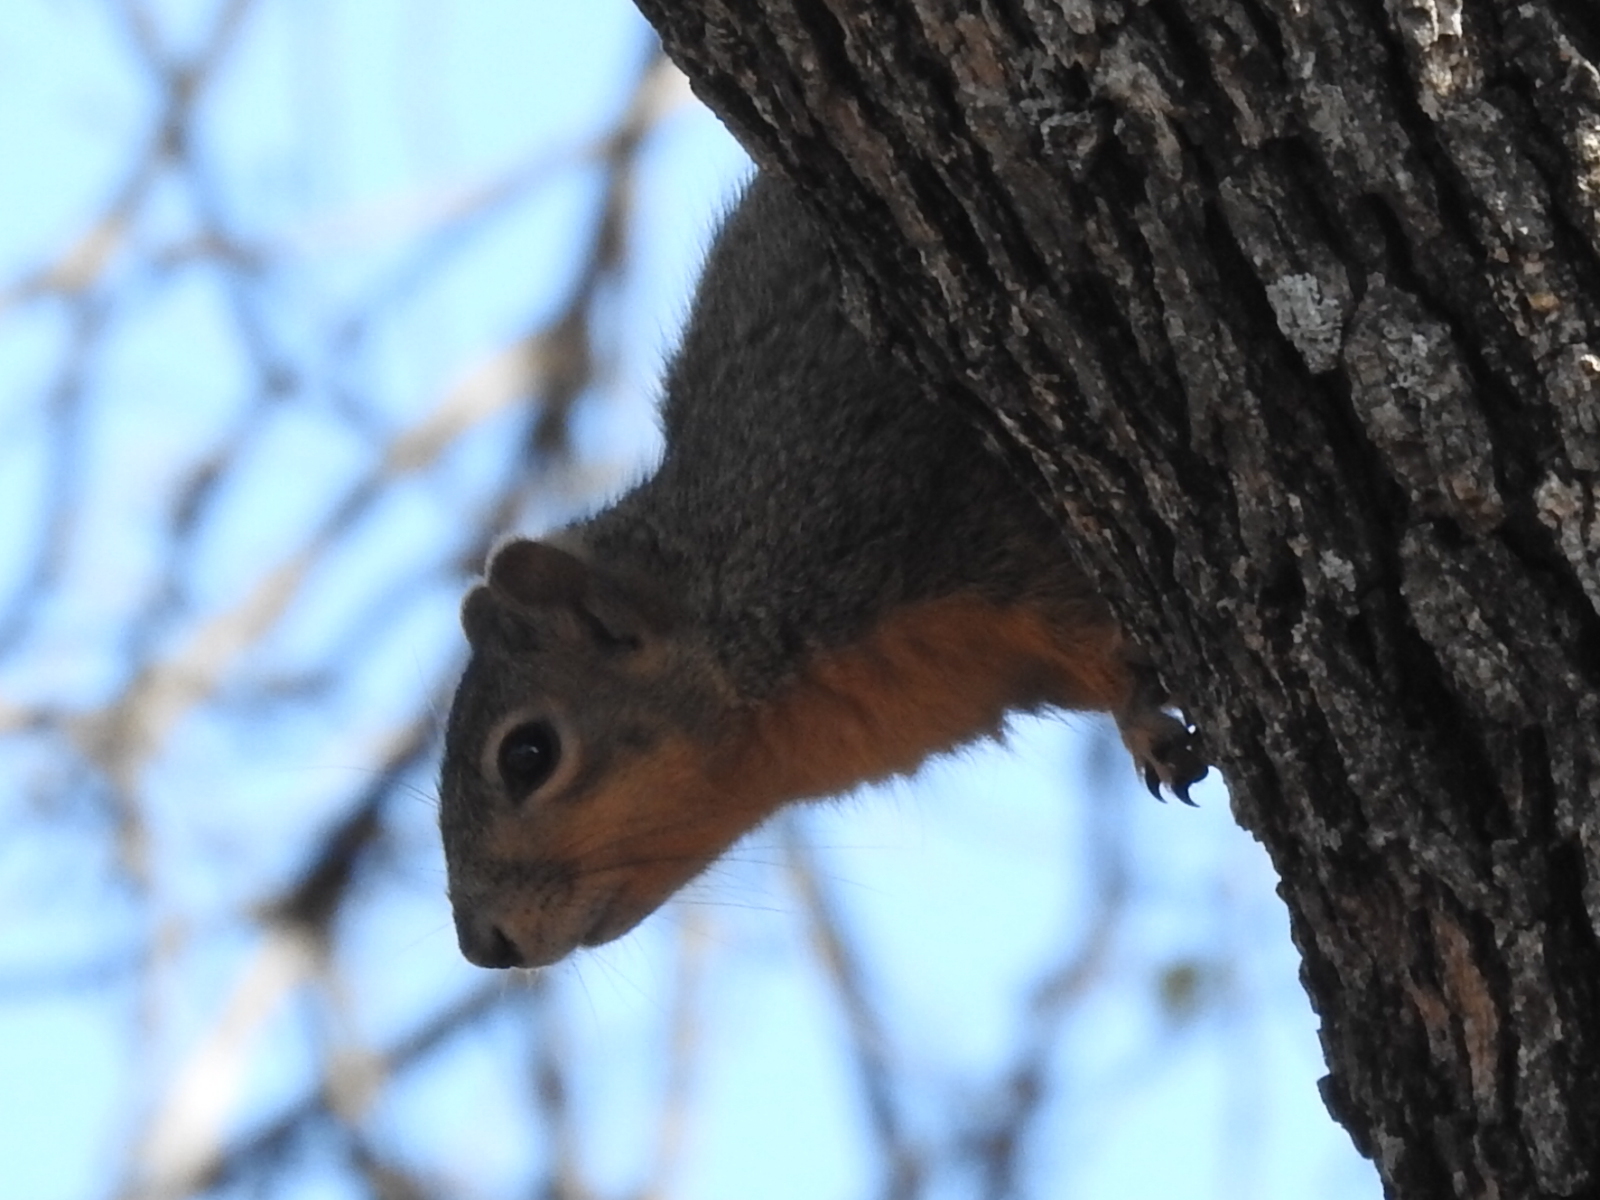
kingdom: Animalia
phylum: Chordata
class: Mammalia
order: Rodentia
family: Sciuridae
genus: Sciurus
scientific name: Sciurus niger
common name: Fox squirrel
